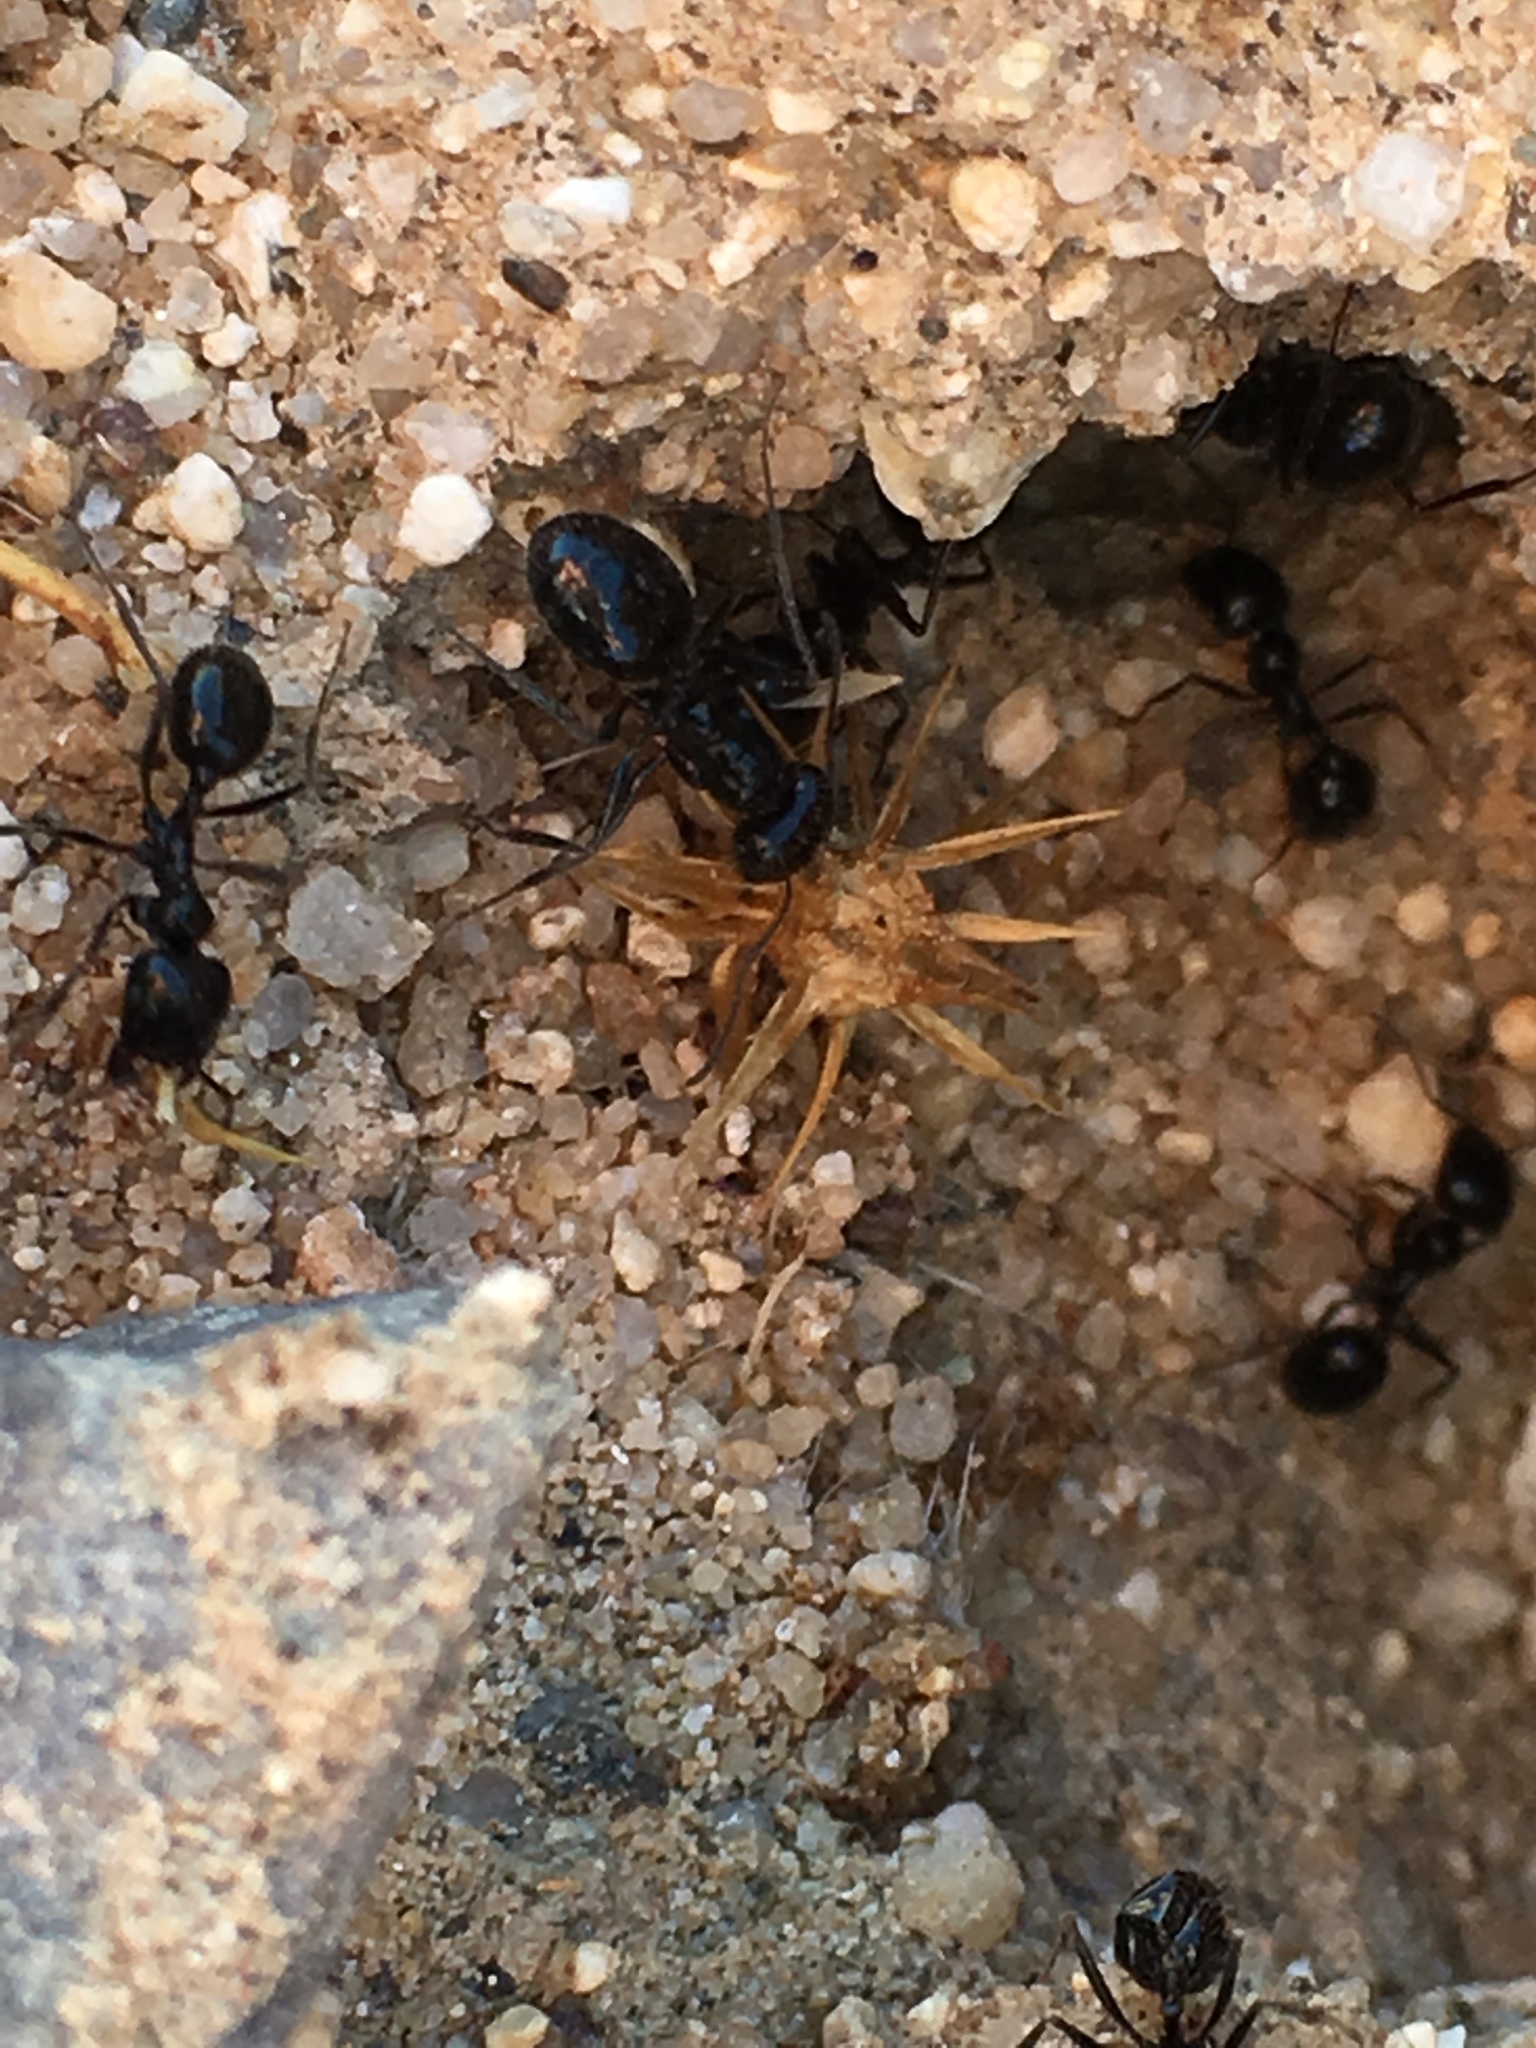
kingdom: Animalia
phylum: Arthropoda
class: Insecta
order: Hymenoptera
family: Formicidae
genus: Messor
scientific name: Messor pergandei
